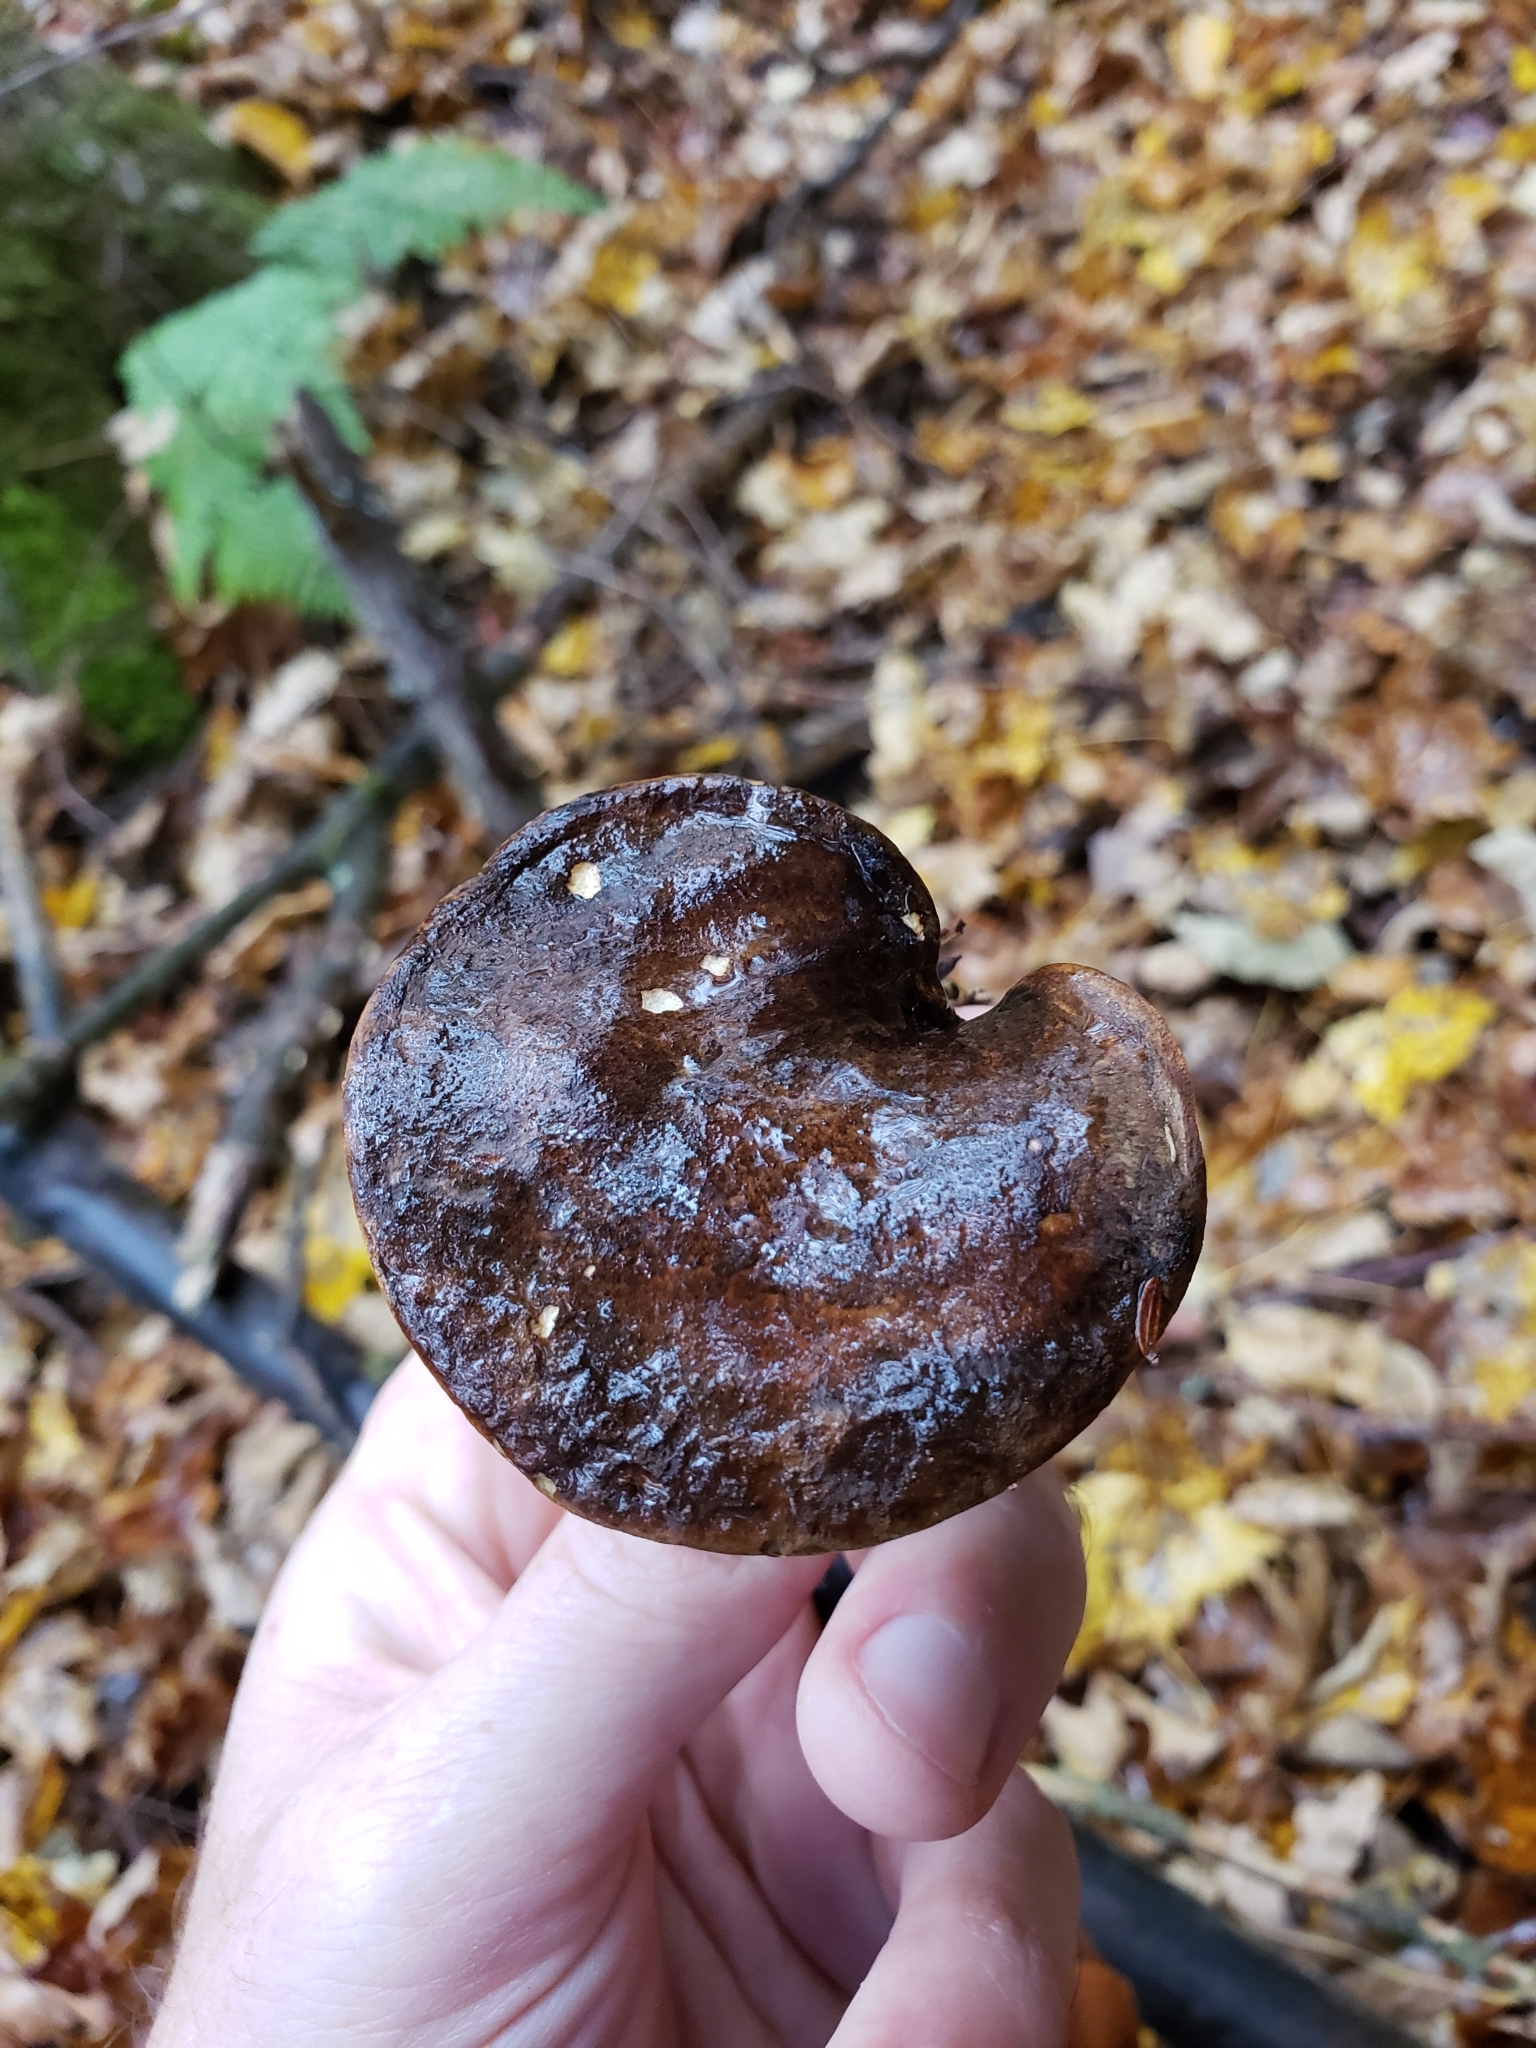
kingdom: Fungi
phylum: Basidiomycota
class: Agaricomycetes
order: Boletales
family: Boletinellaceae
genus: Boletinellus
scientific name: Boletinellus merulioides
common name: Ash tree bolete
